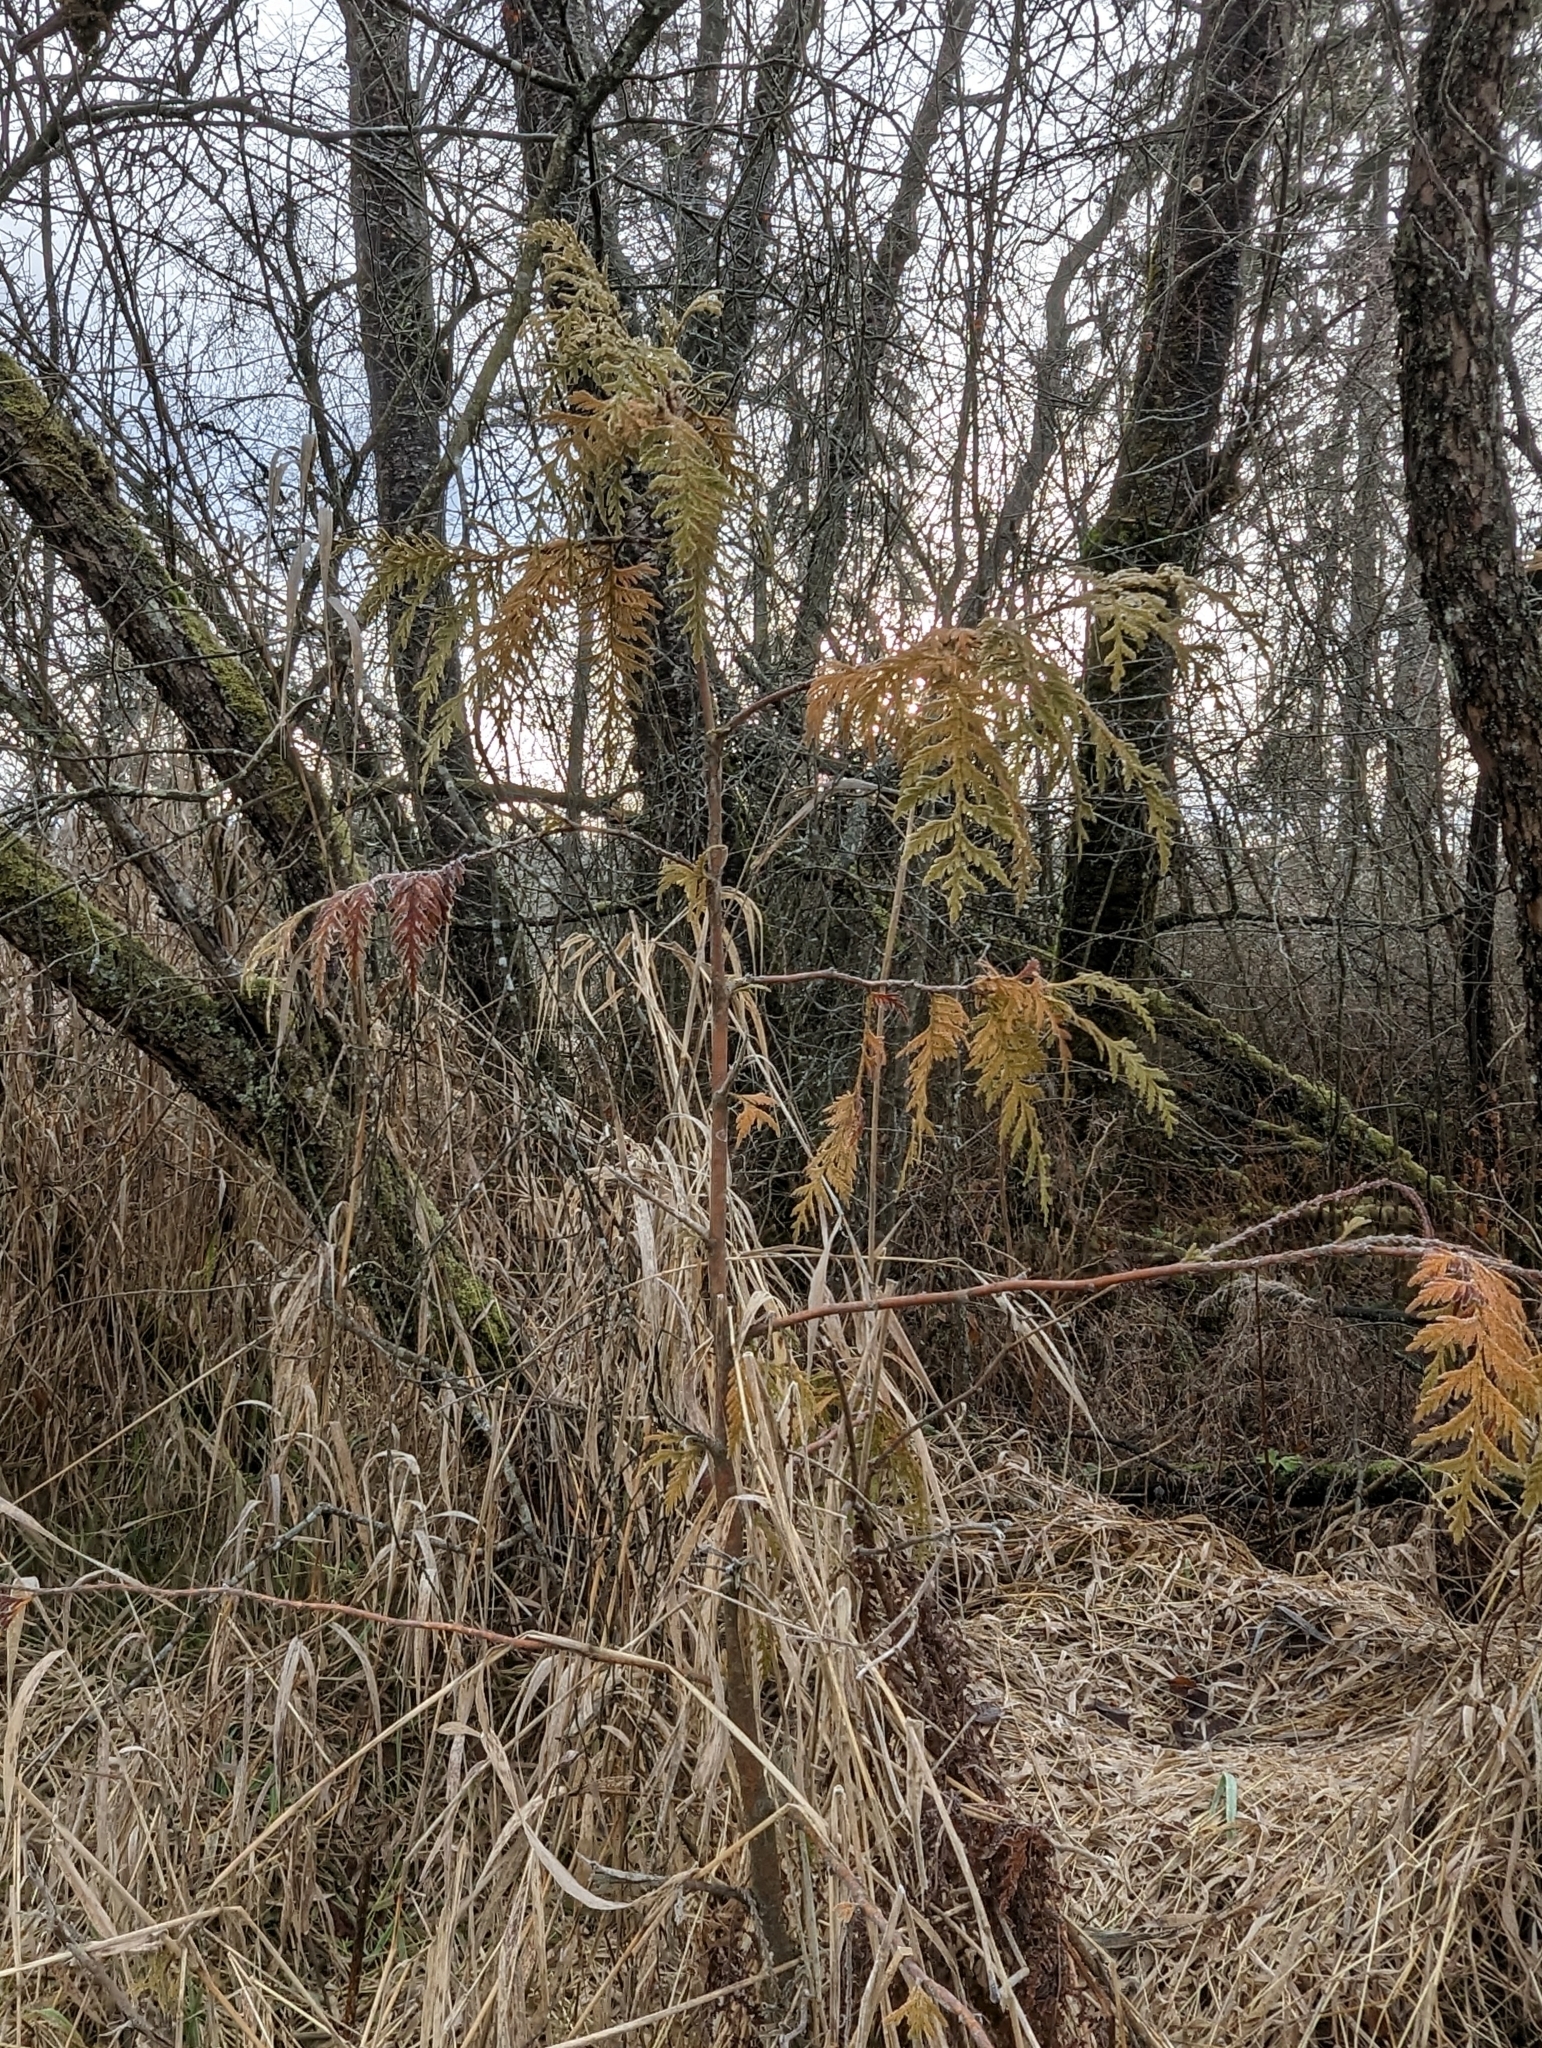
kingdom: Plantae
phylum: Tracheophyta
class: Pinopsida
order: Pinales
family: Cupressaceae
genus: Thuja
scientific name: Thuja plicata
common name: Western red-cedar
